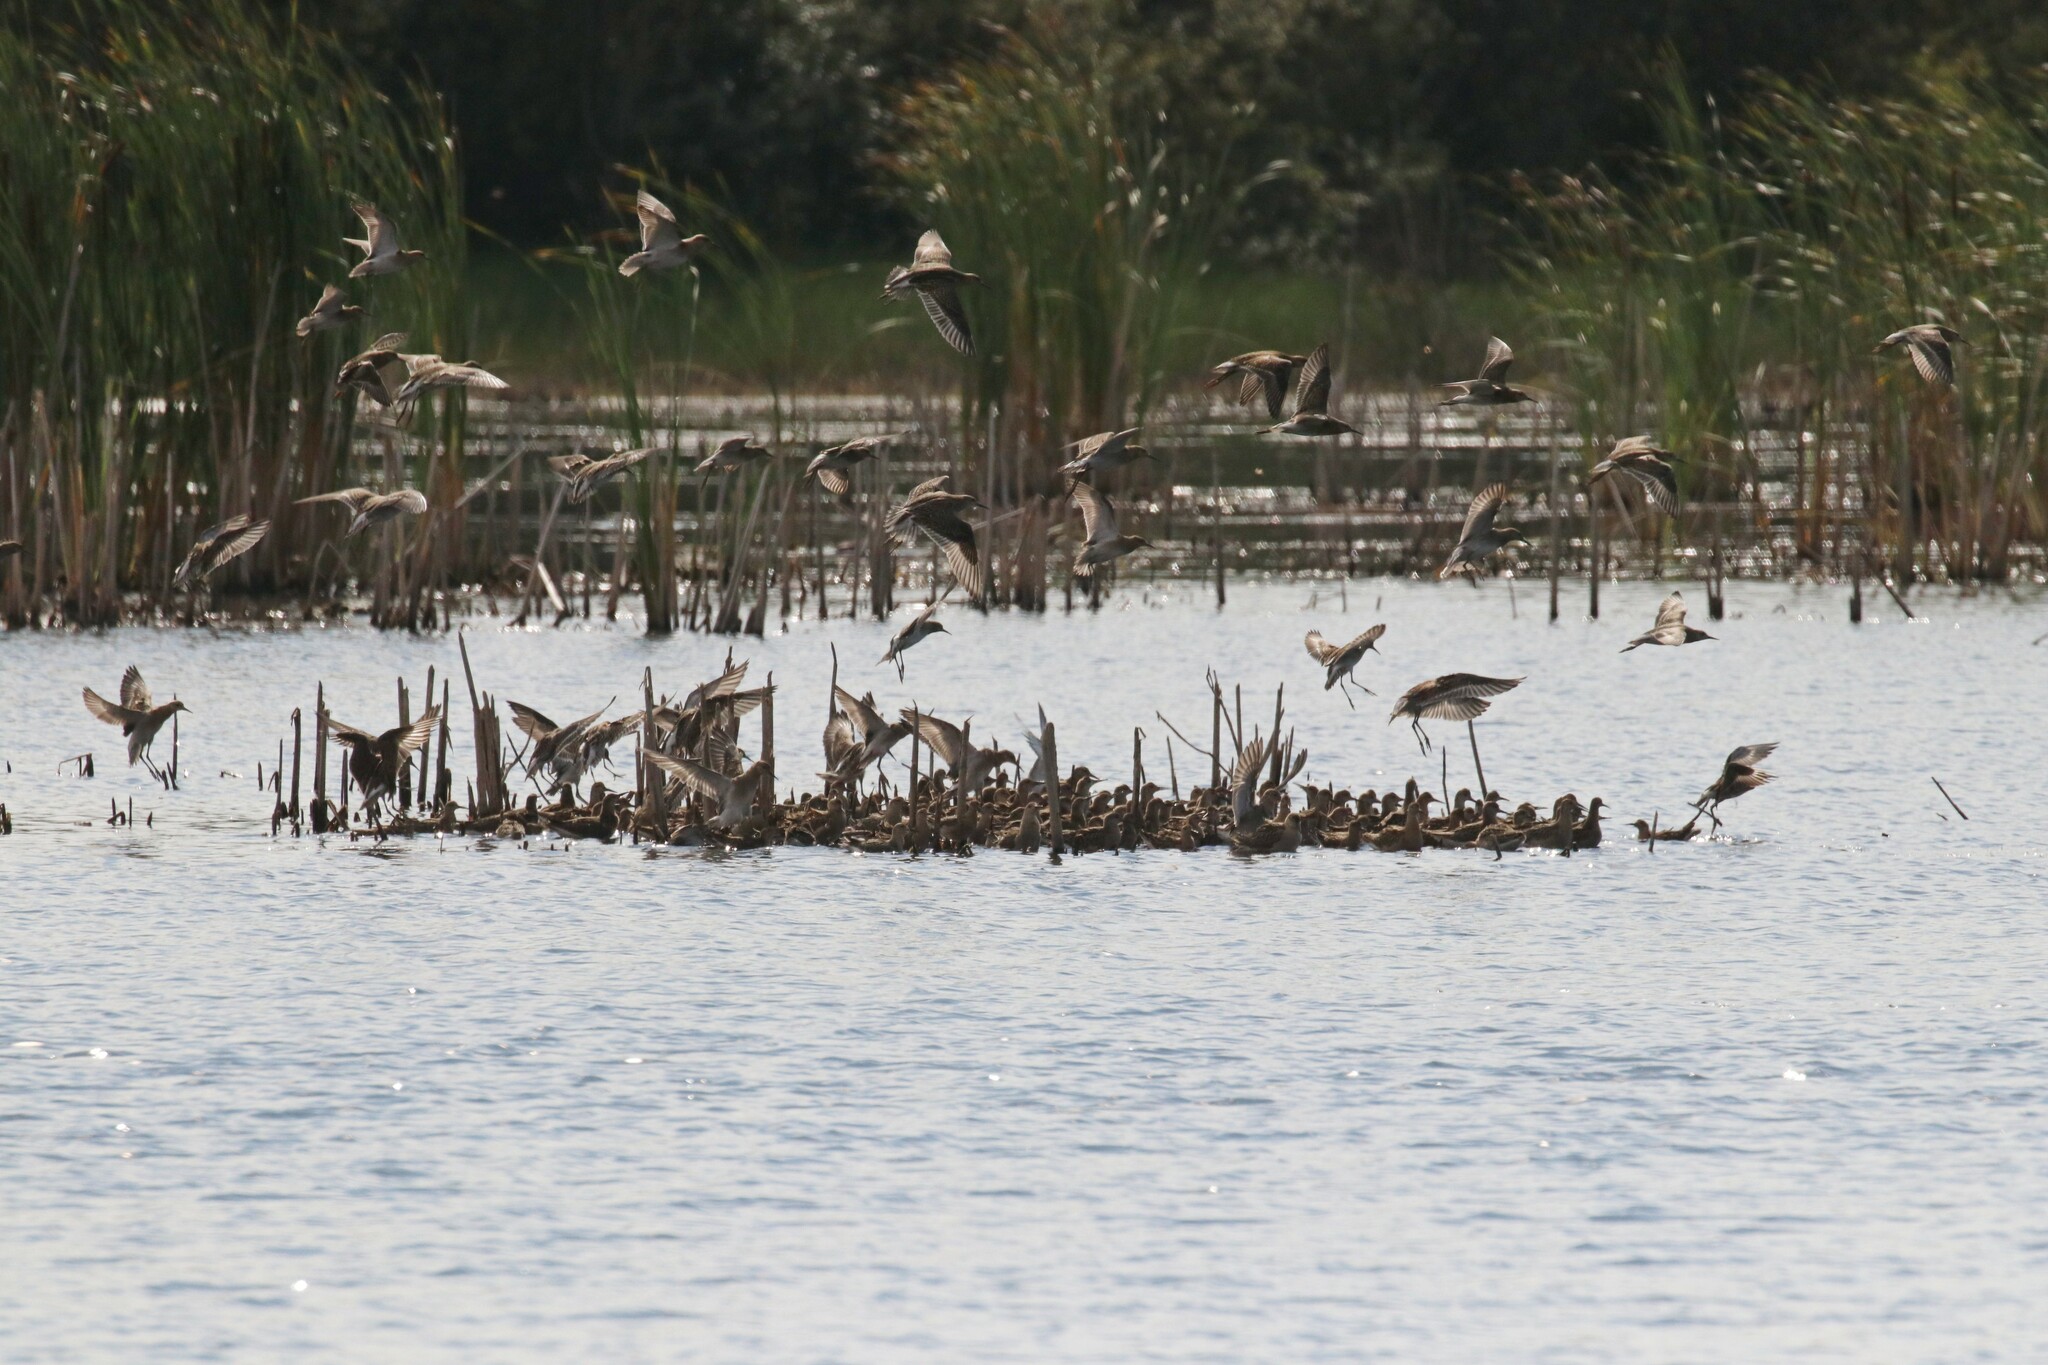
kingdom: Animalia
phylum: Chordata
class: Aves
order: Charadriiformes
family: Scolopacidae
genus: Calidris
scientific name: Calidris pugnax
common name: Ruff
